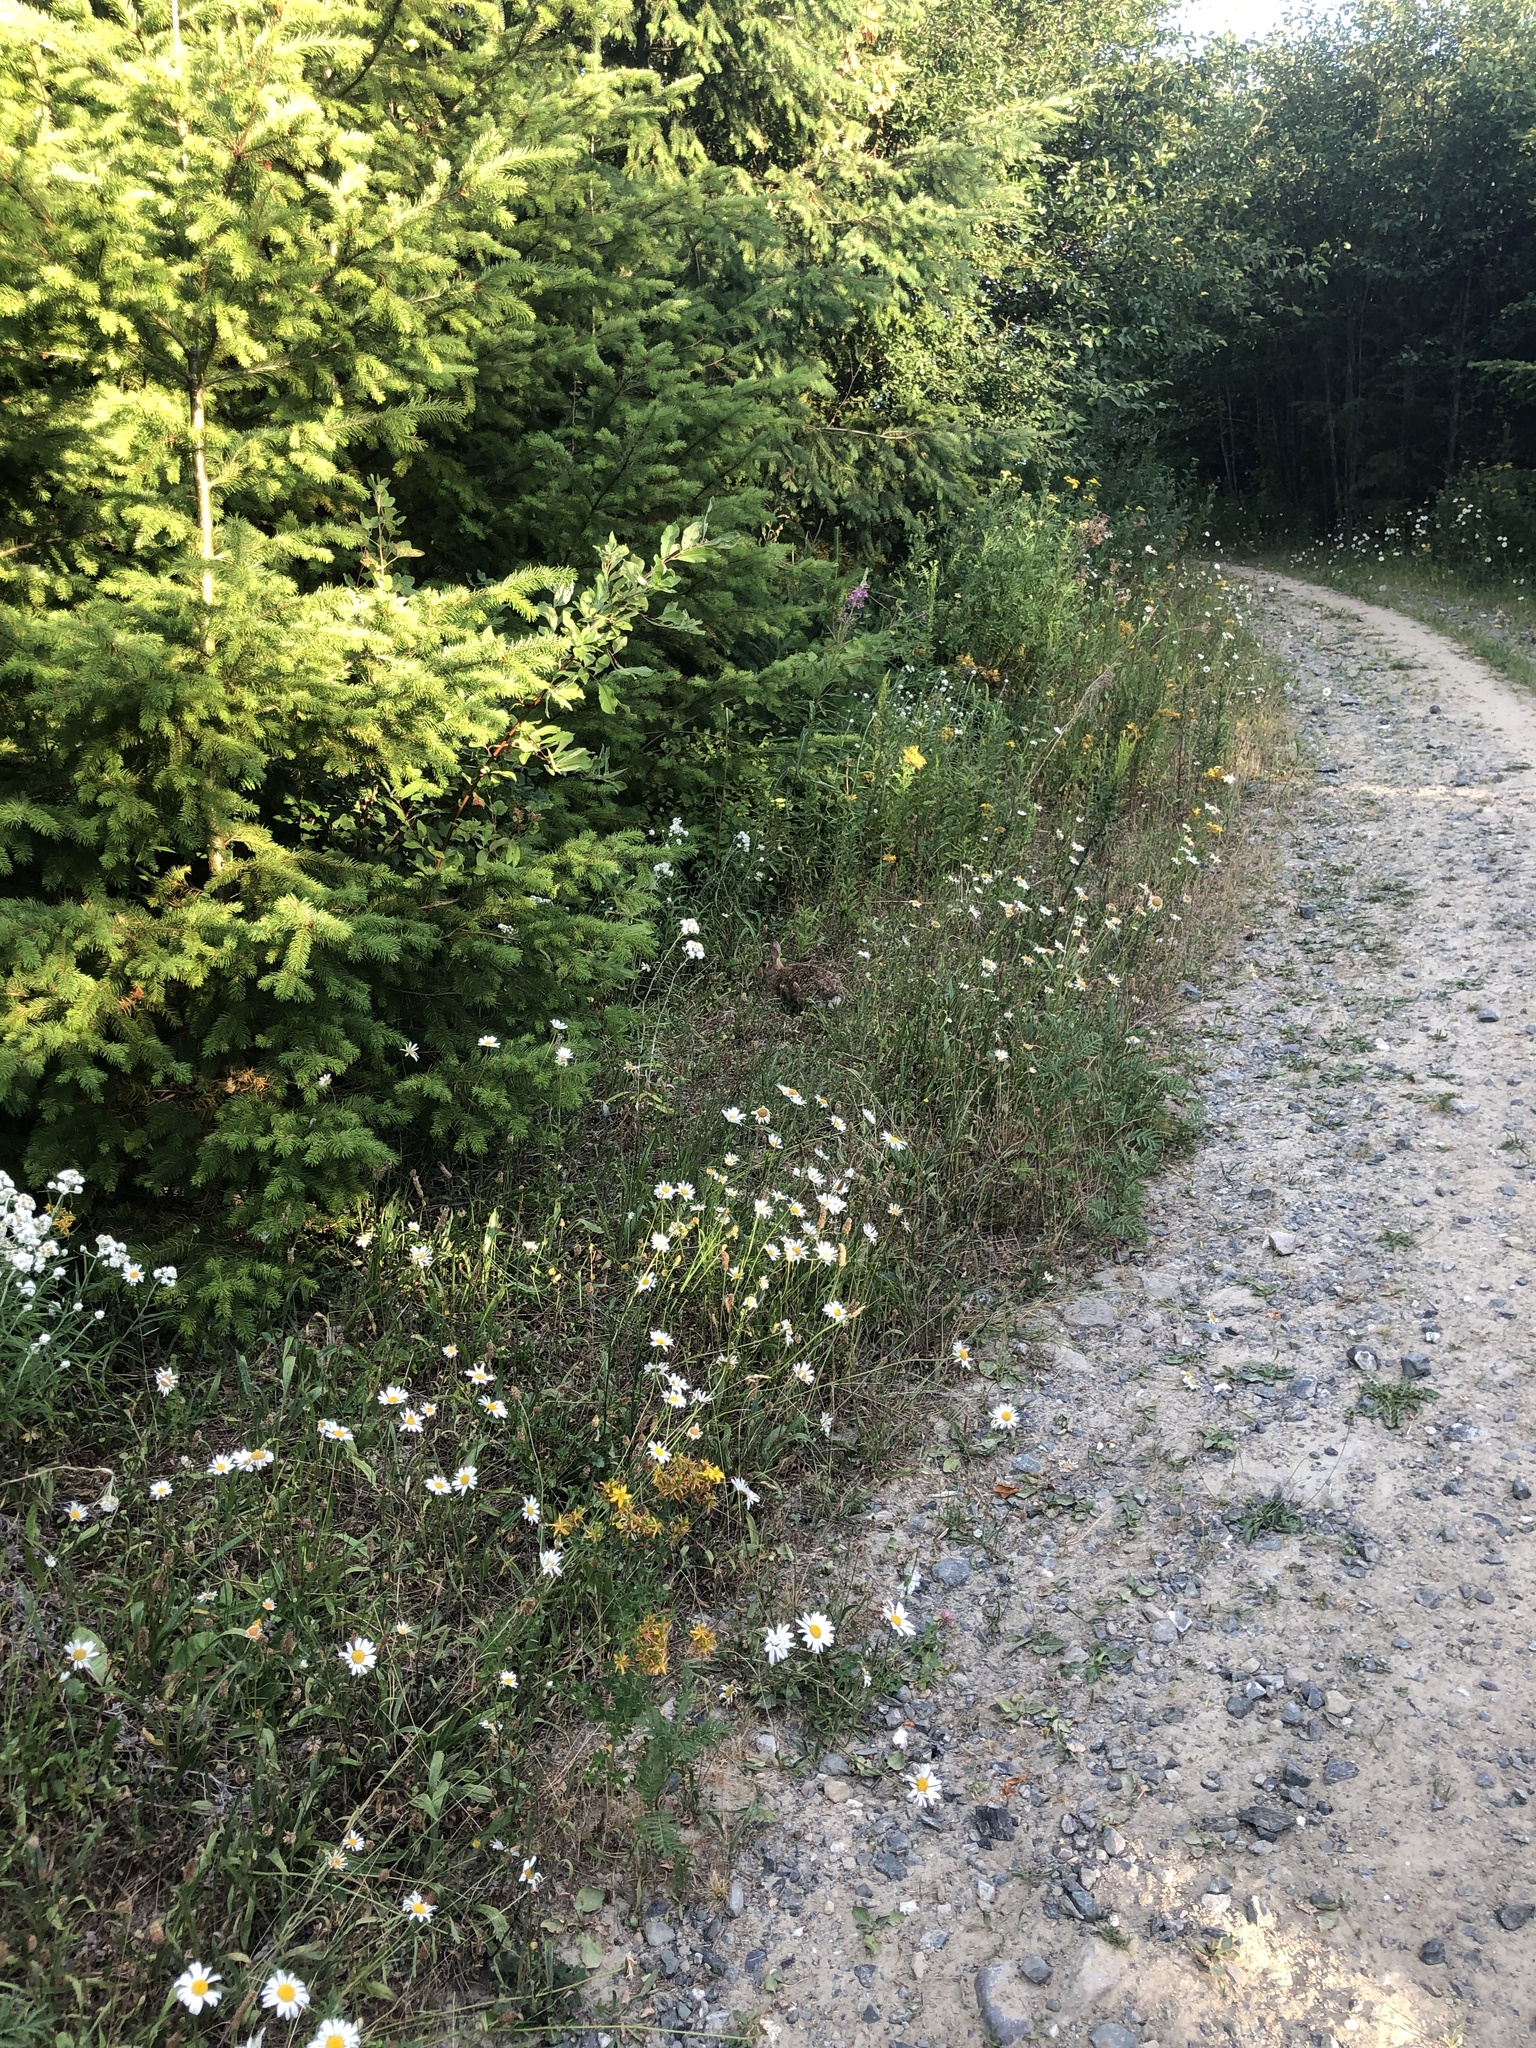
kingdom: Animalia
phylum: Chordata
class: Mammalia
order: Lagomorpha
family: Leporidae
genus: Sylvilagus
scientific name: Sylvilagus floridanus
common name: Eastern cottontail
